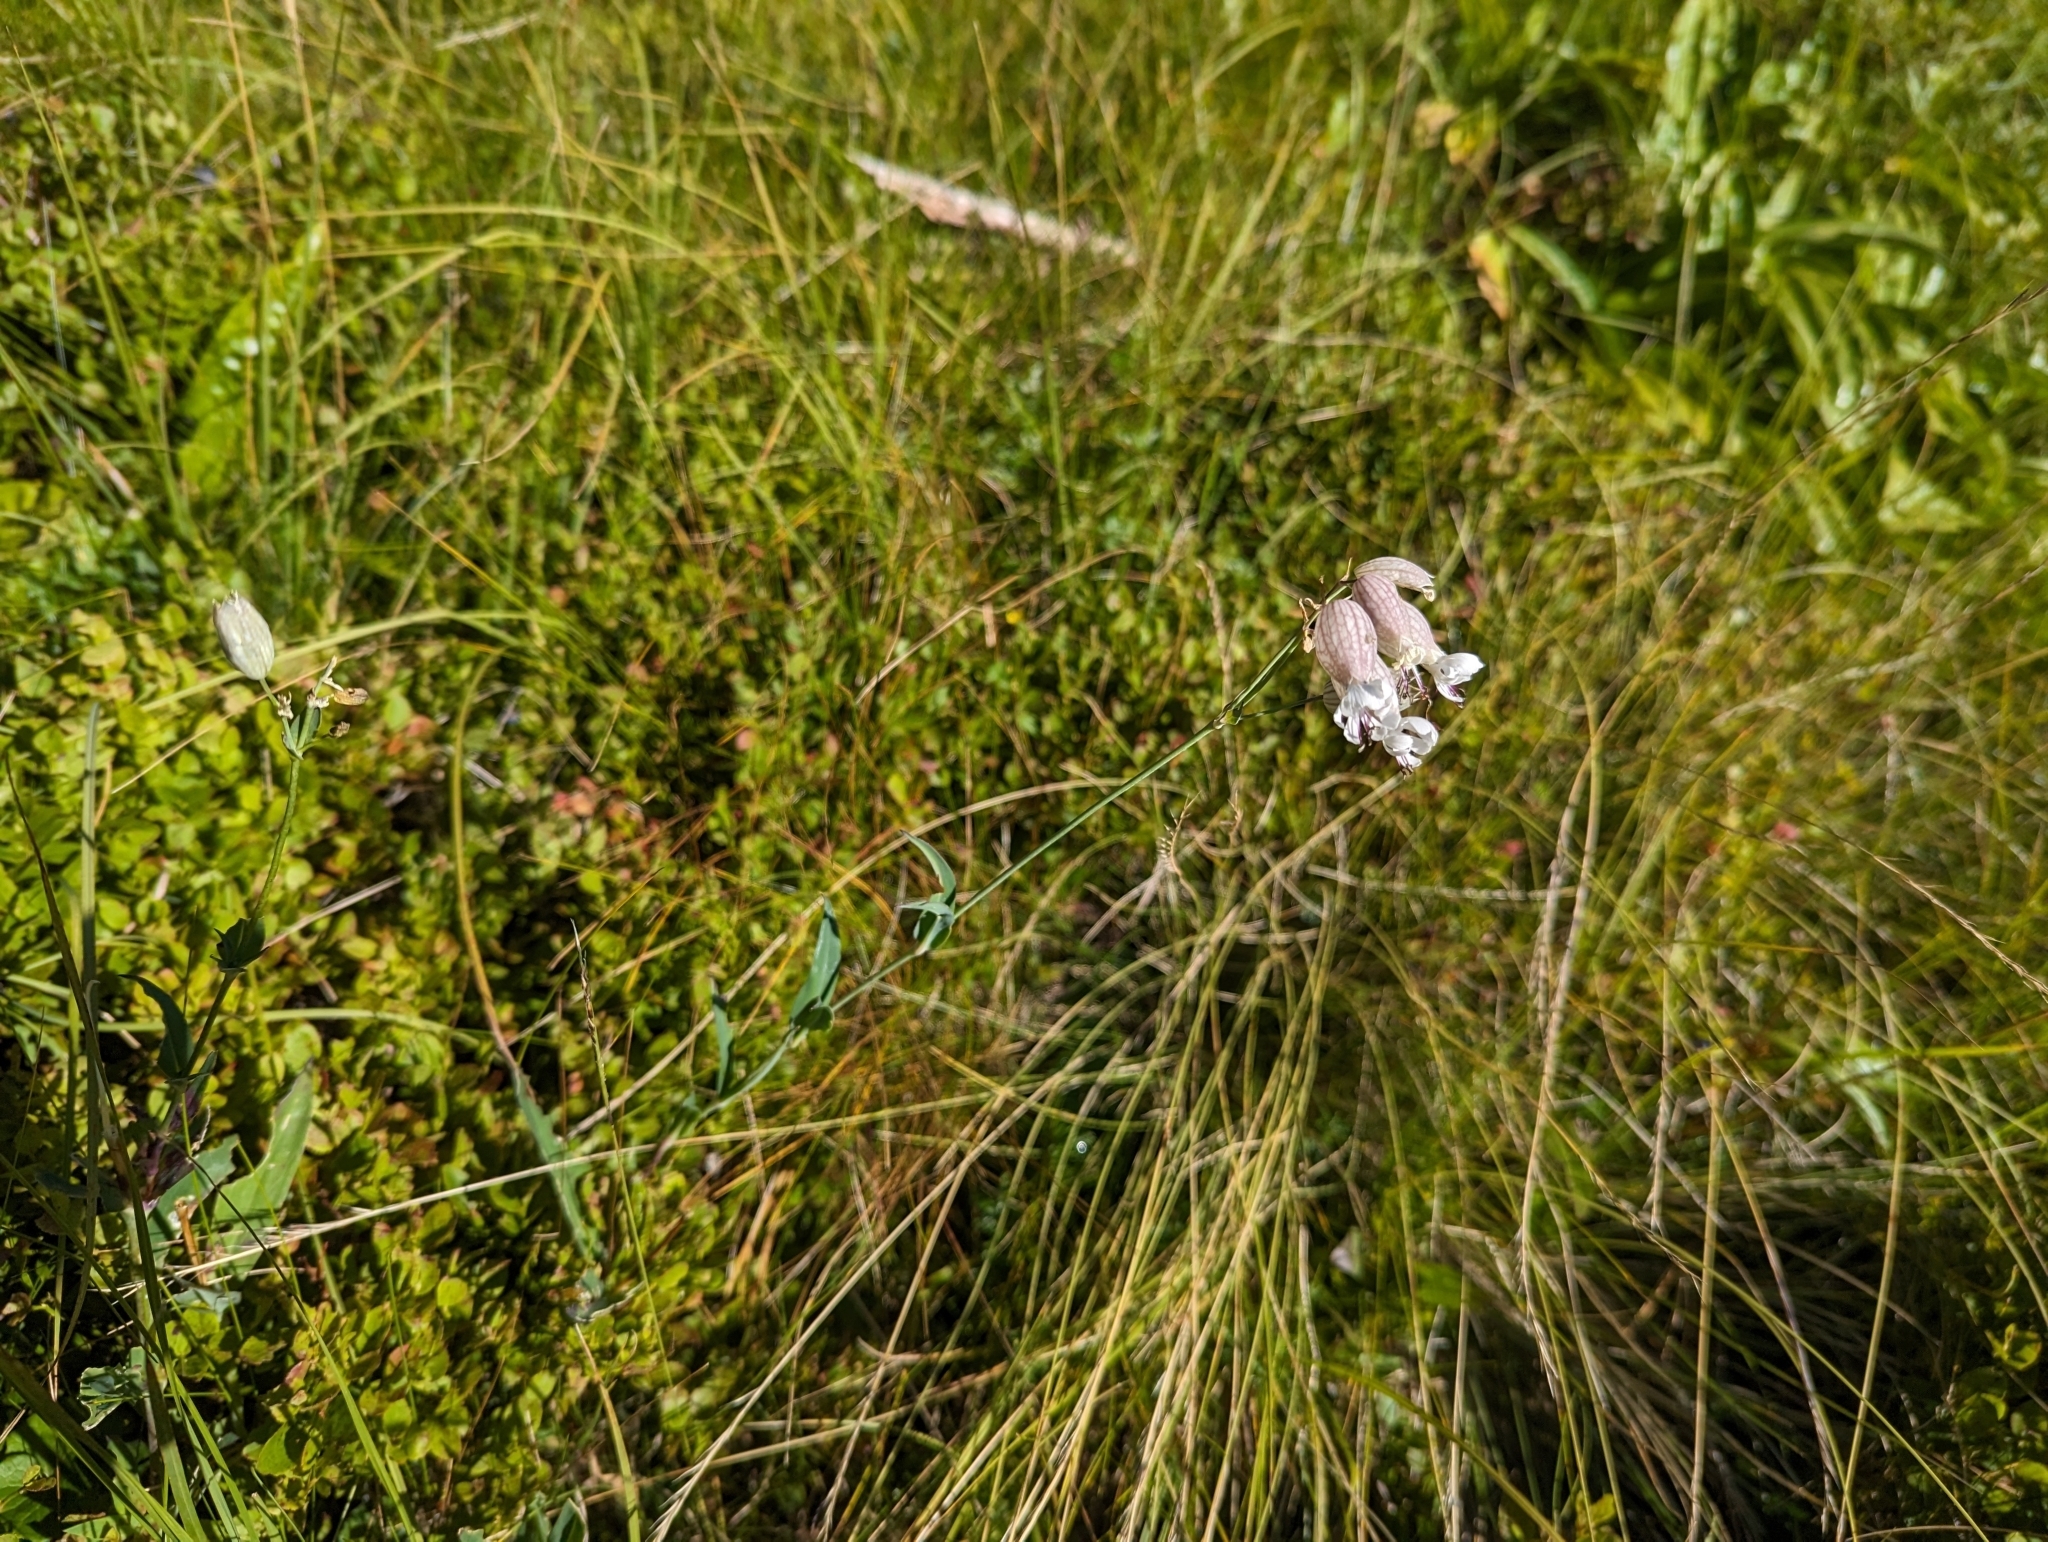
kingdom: Plantae
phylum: Tracheophyta
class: Magnoliopsida
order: Caryophyllales
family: Caryophyllaceae
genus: Silene
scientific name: Silene vulgaris
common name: Bladder campion
